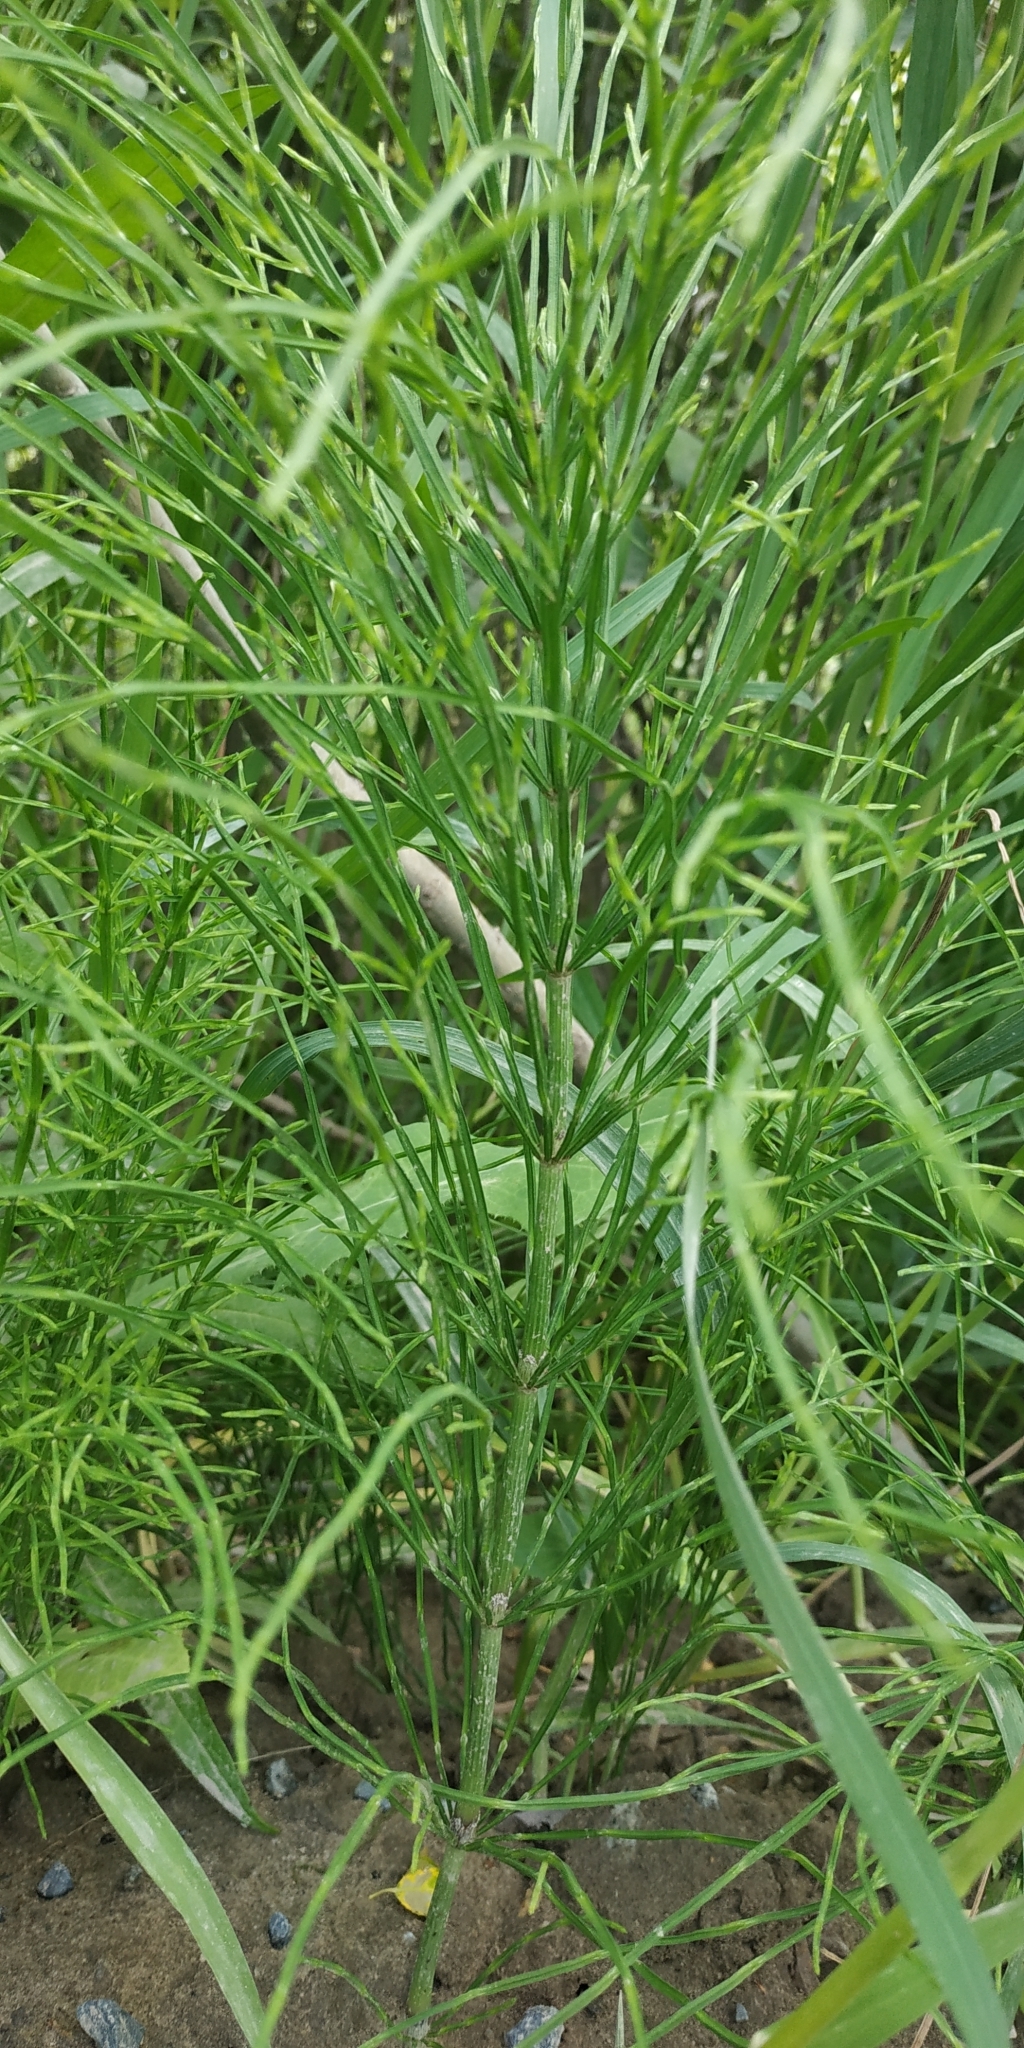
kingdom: Plantae
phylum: Tracheophyta
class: Polypodiopsida
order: Equisetales
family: Equisetaceae
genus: Equisetum
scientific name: Equisetum arvense
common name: Field horsetail
